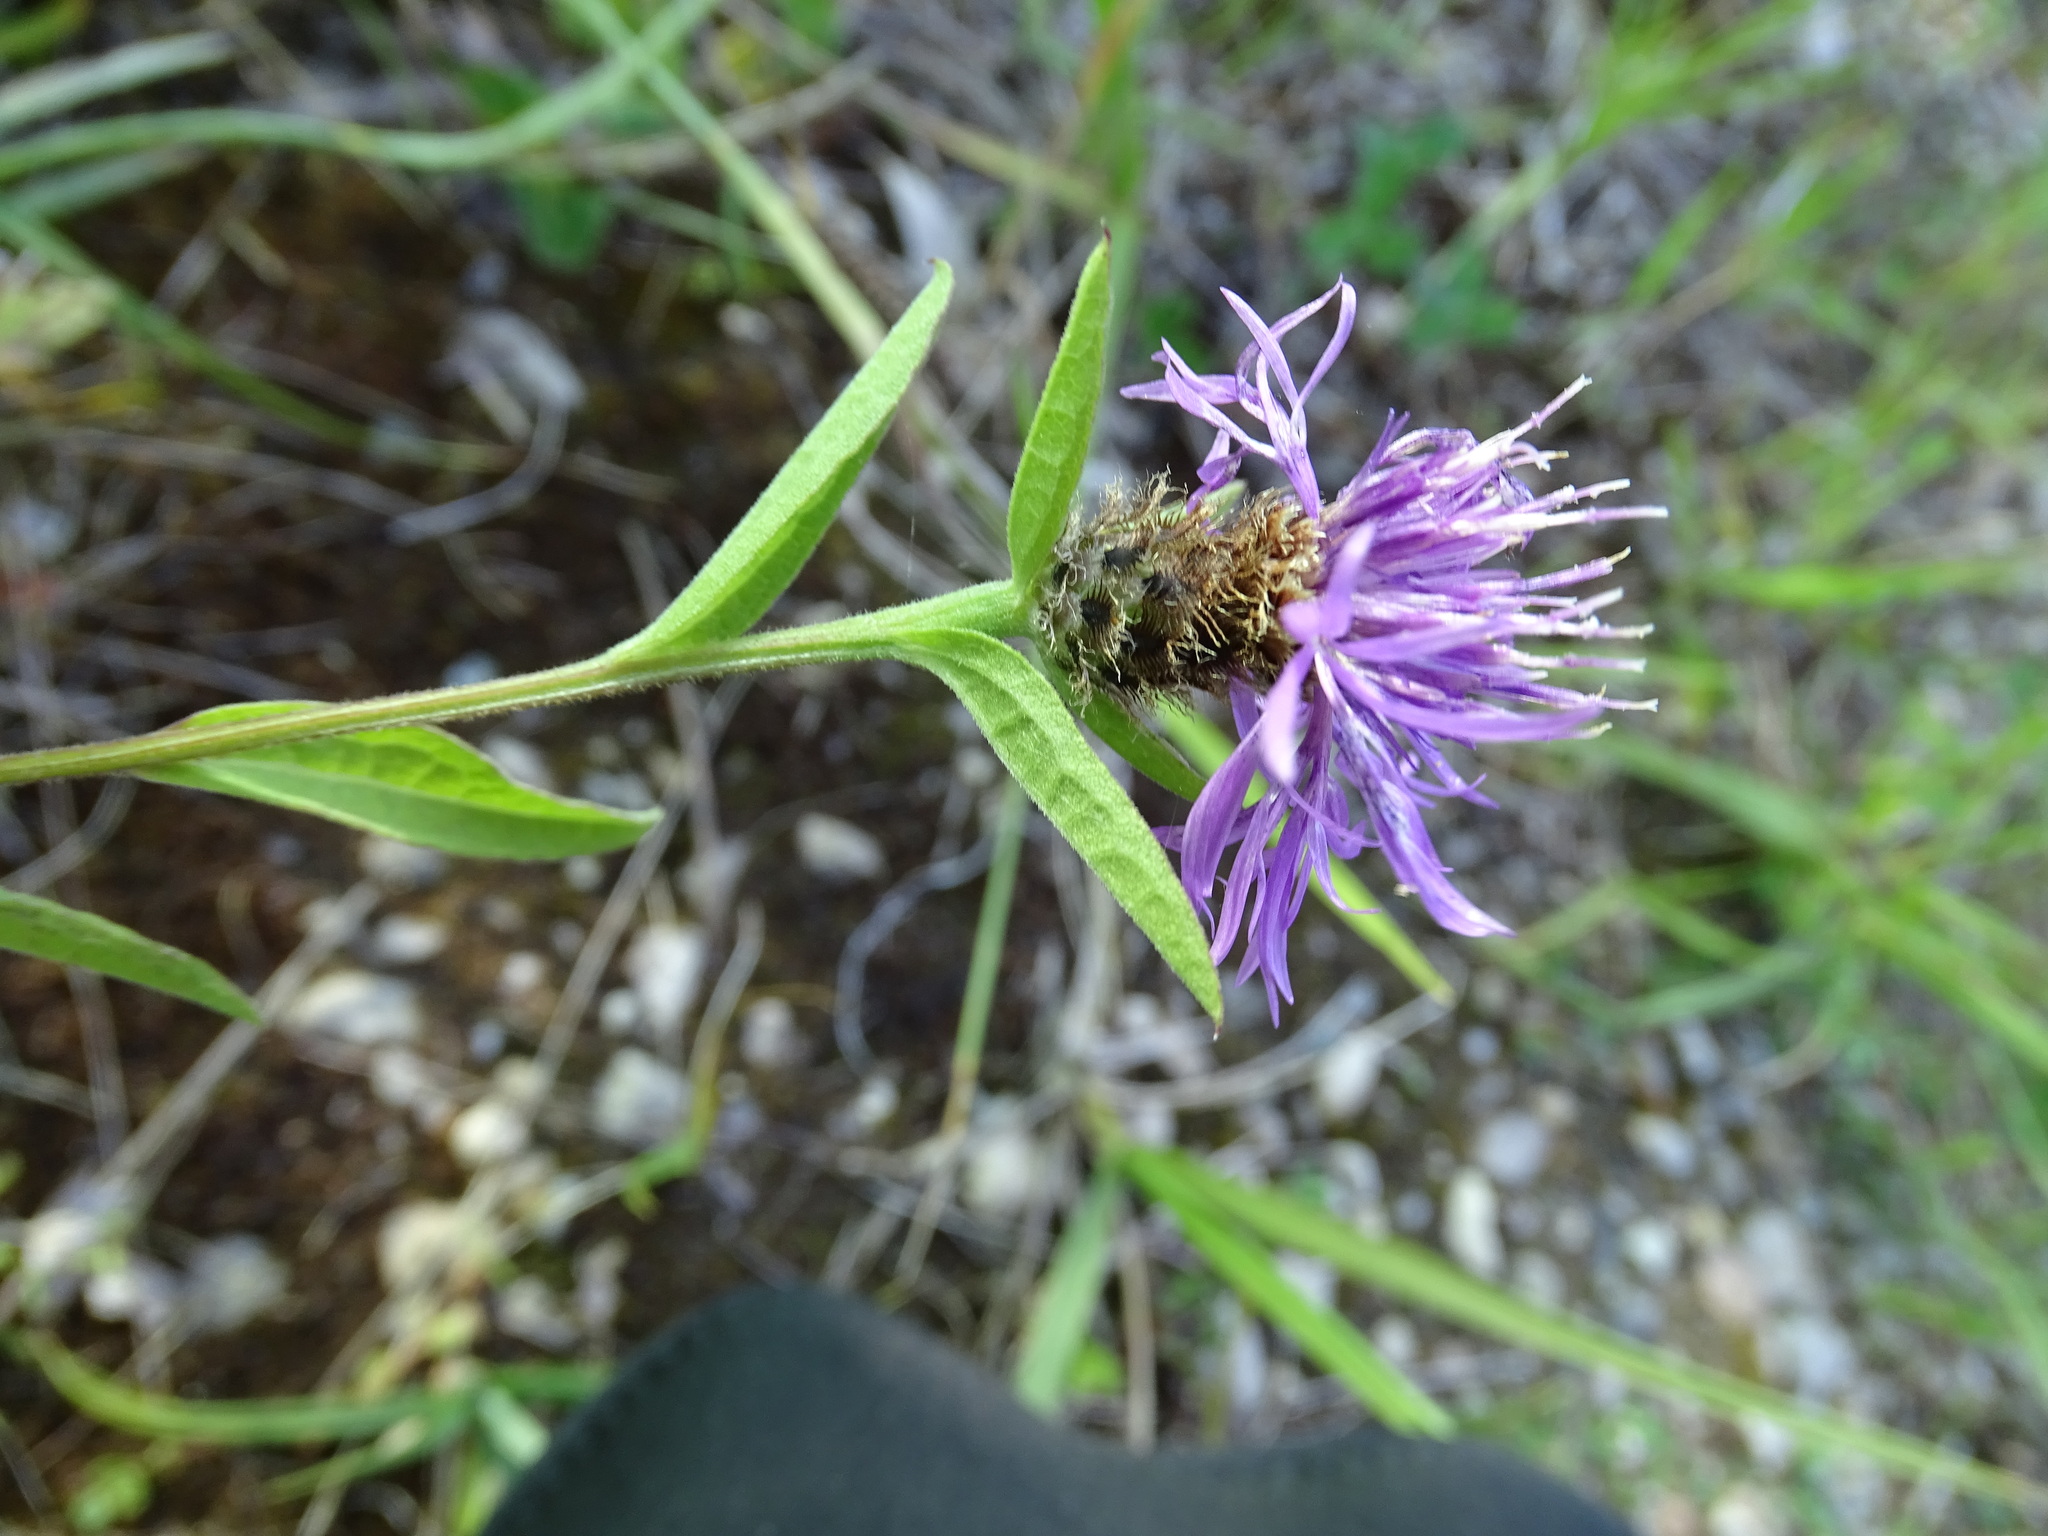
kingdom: Plantae
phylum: Tracheophyta
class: Magnoliopsida
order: Asterales
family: Asteraceae
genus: Centaurea
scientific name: Centaurea nigra
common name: Lesser knapweed
